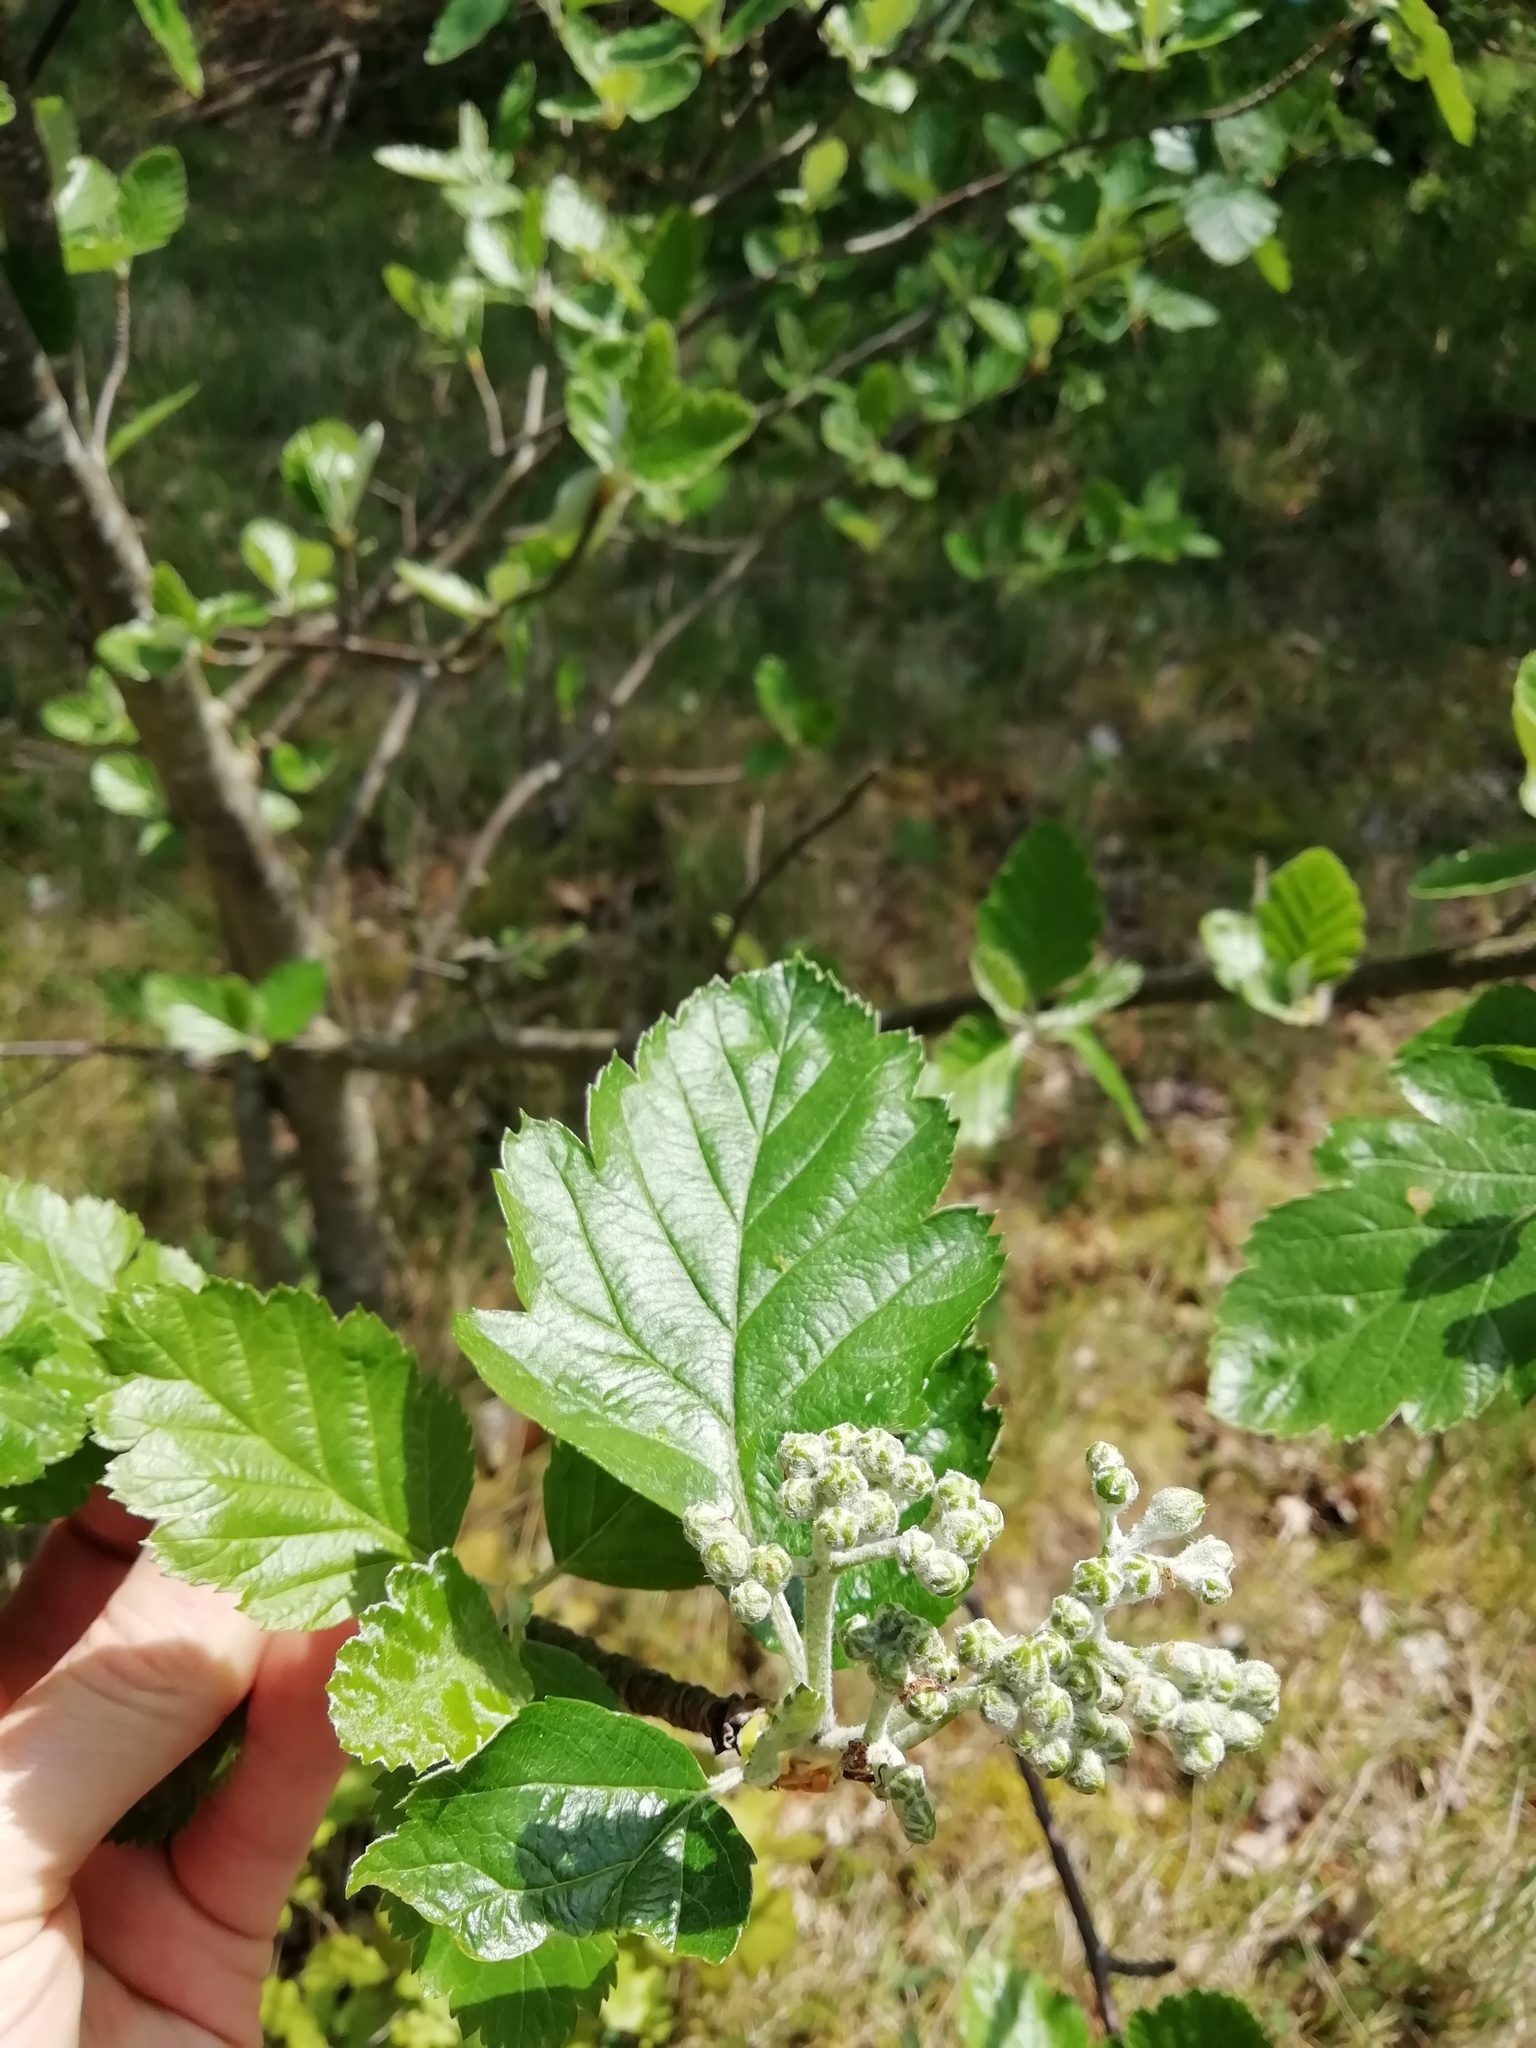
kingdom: Plantae
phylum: Tracheophyta
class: Magnoliopsida
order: Rosales
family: Rosaceae
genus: Scandosorbus
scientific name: Scandosorbus intermedia
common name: Swedish whitebeam
